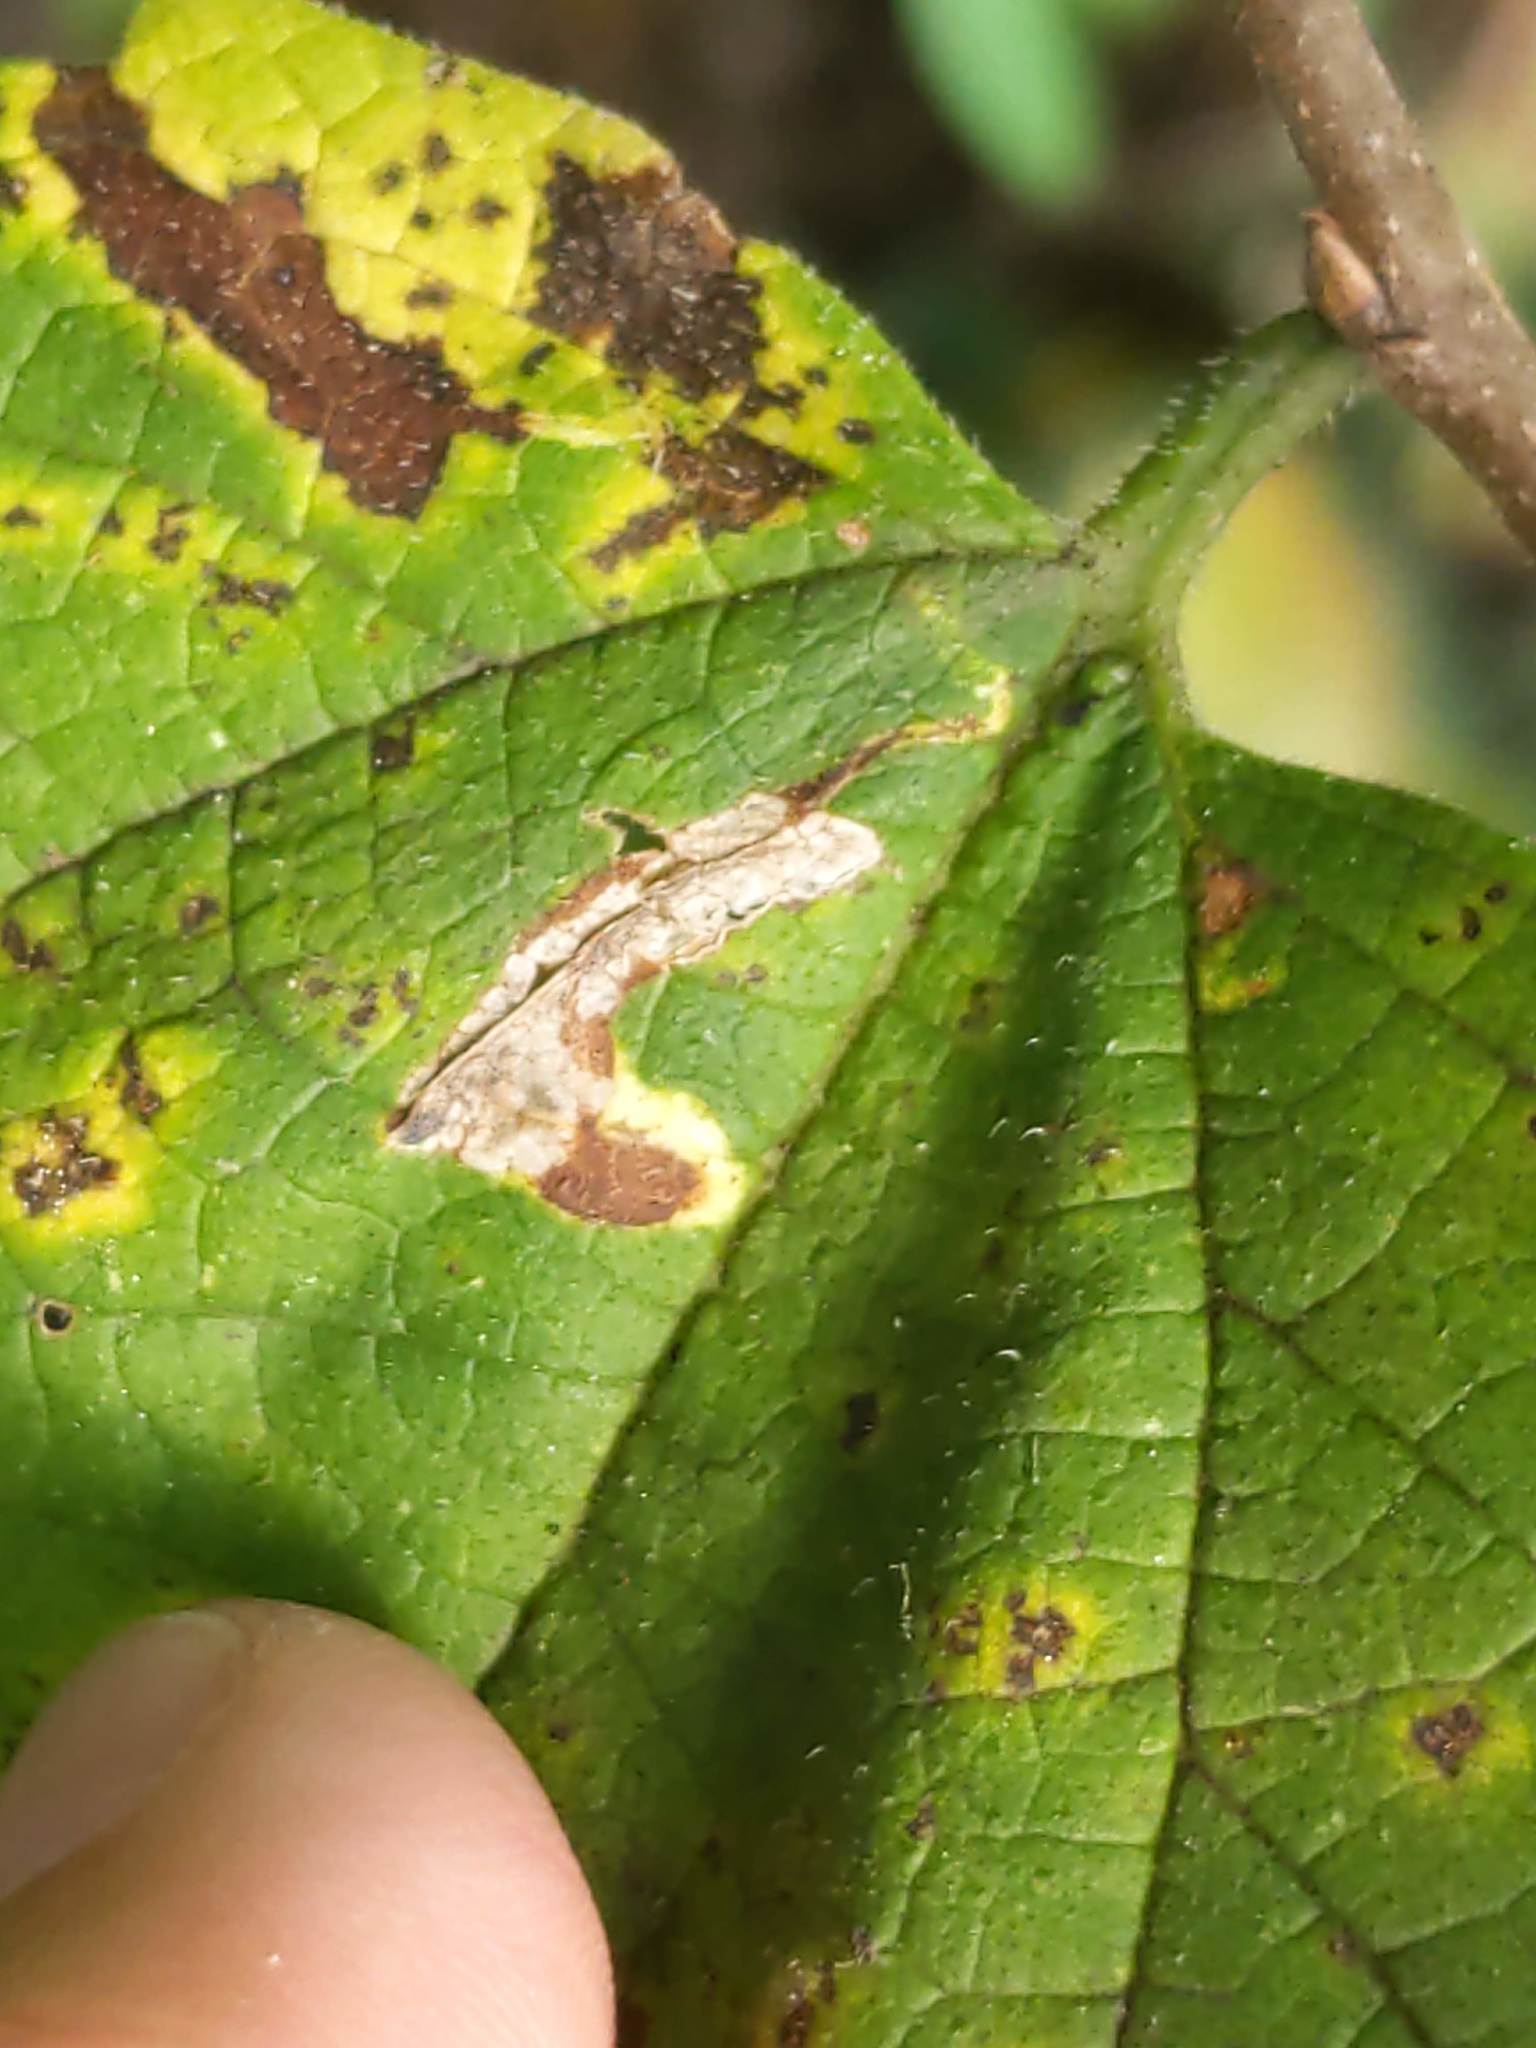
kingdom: Animalia
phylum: Arthropoda
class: Insecta
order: Lepidoptera
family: Gracillariidae
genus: Phyllonorycter
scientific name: Phyllonorycter celtisella
